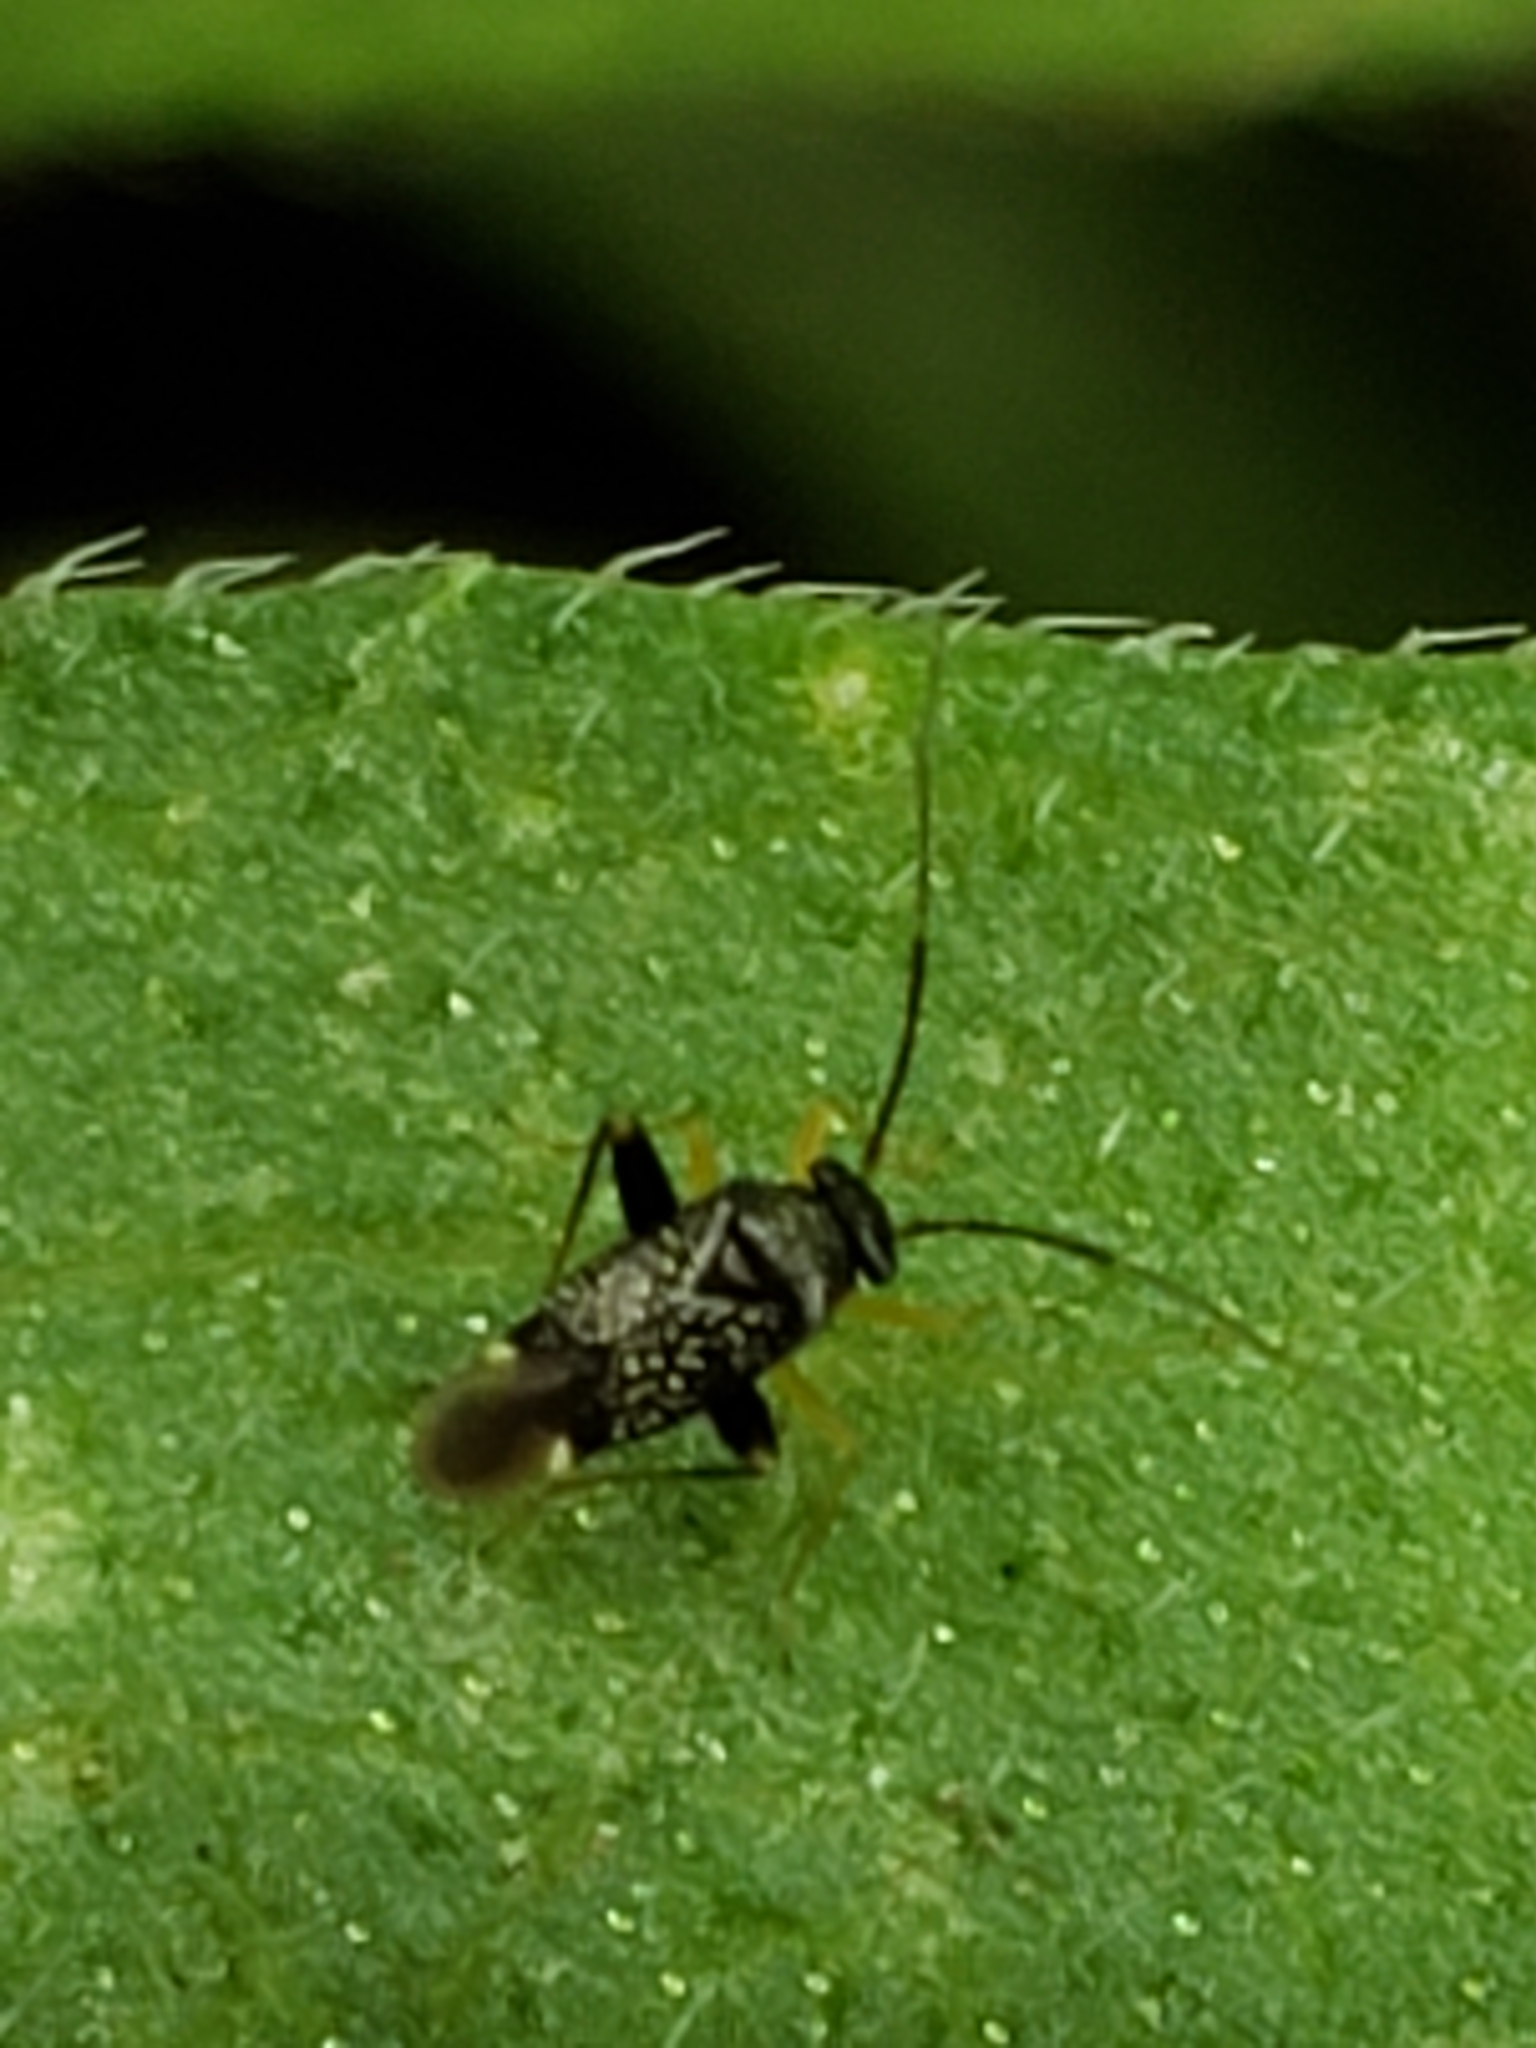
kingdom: Animalia
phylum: Arthropoda
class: Insecta
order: Hemiptera
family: Miridae
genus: Microtechnites
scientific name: Microtechnites bractatus
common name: Garden fleahopper
